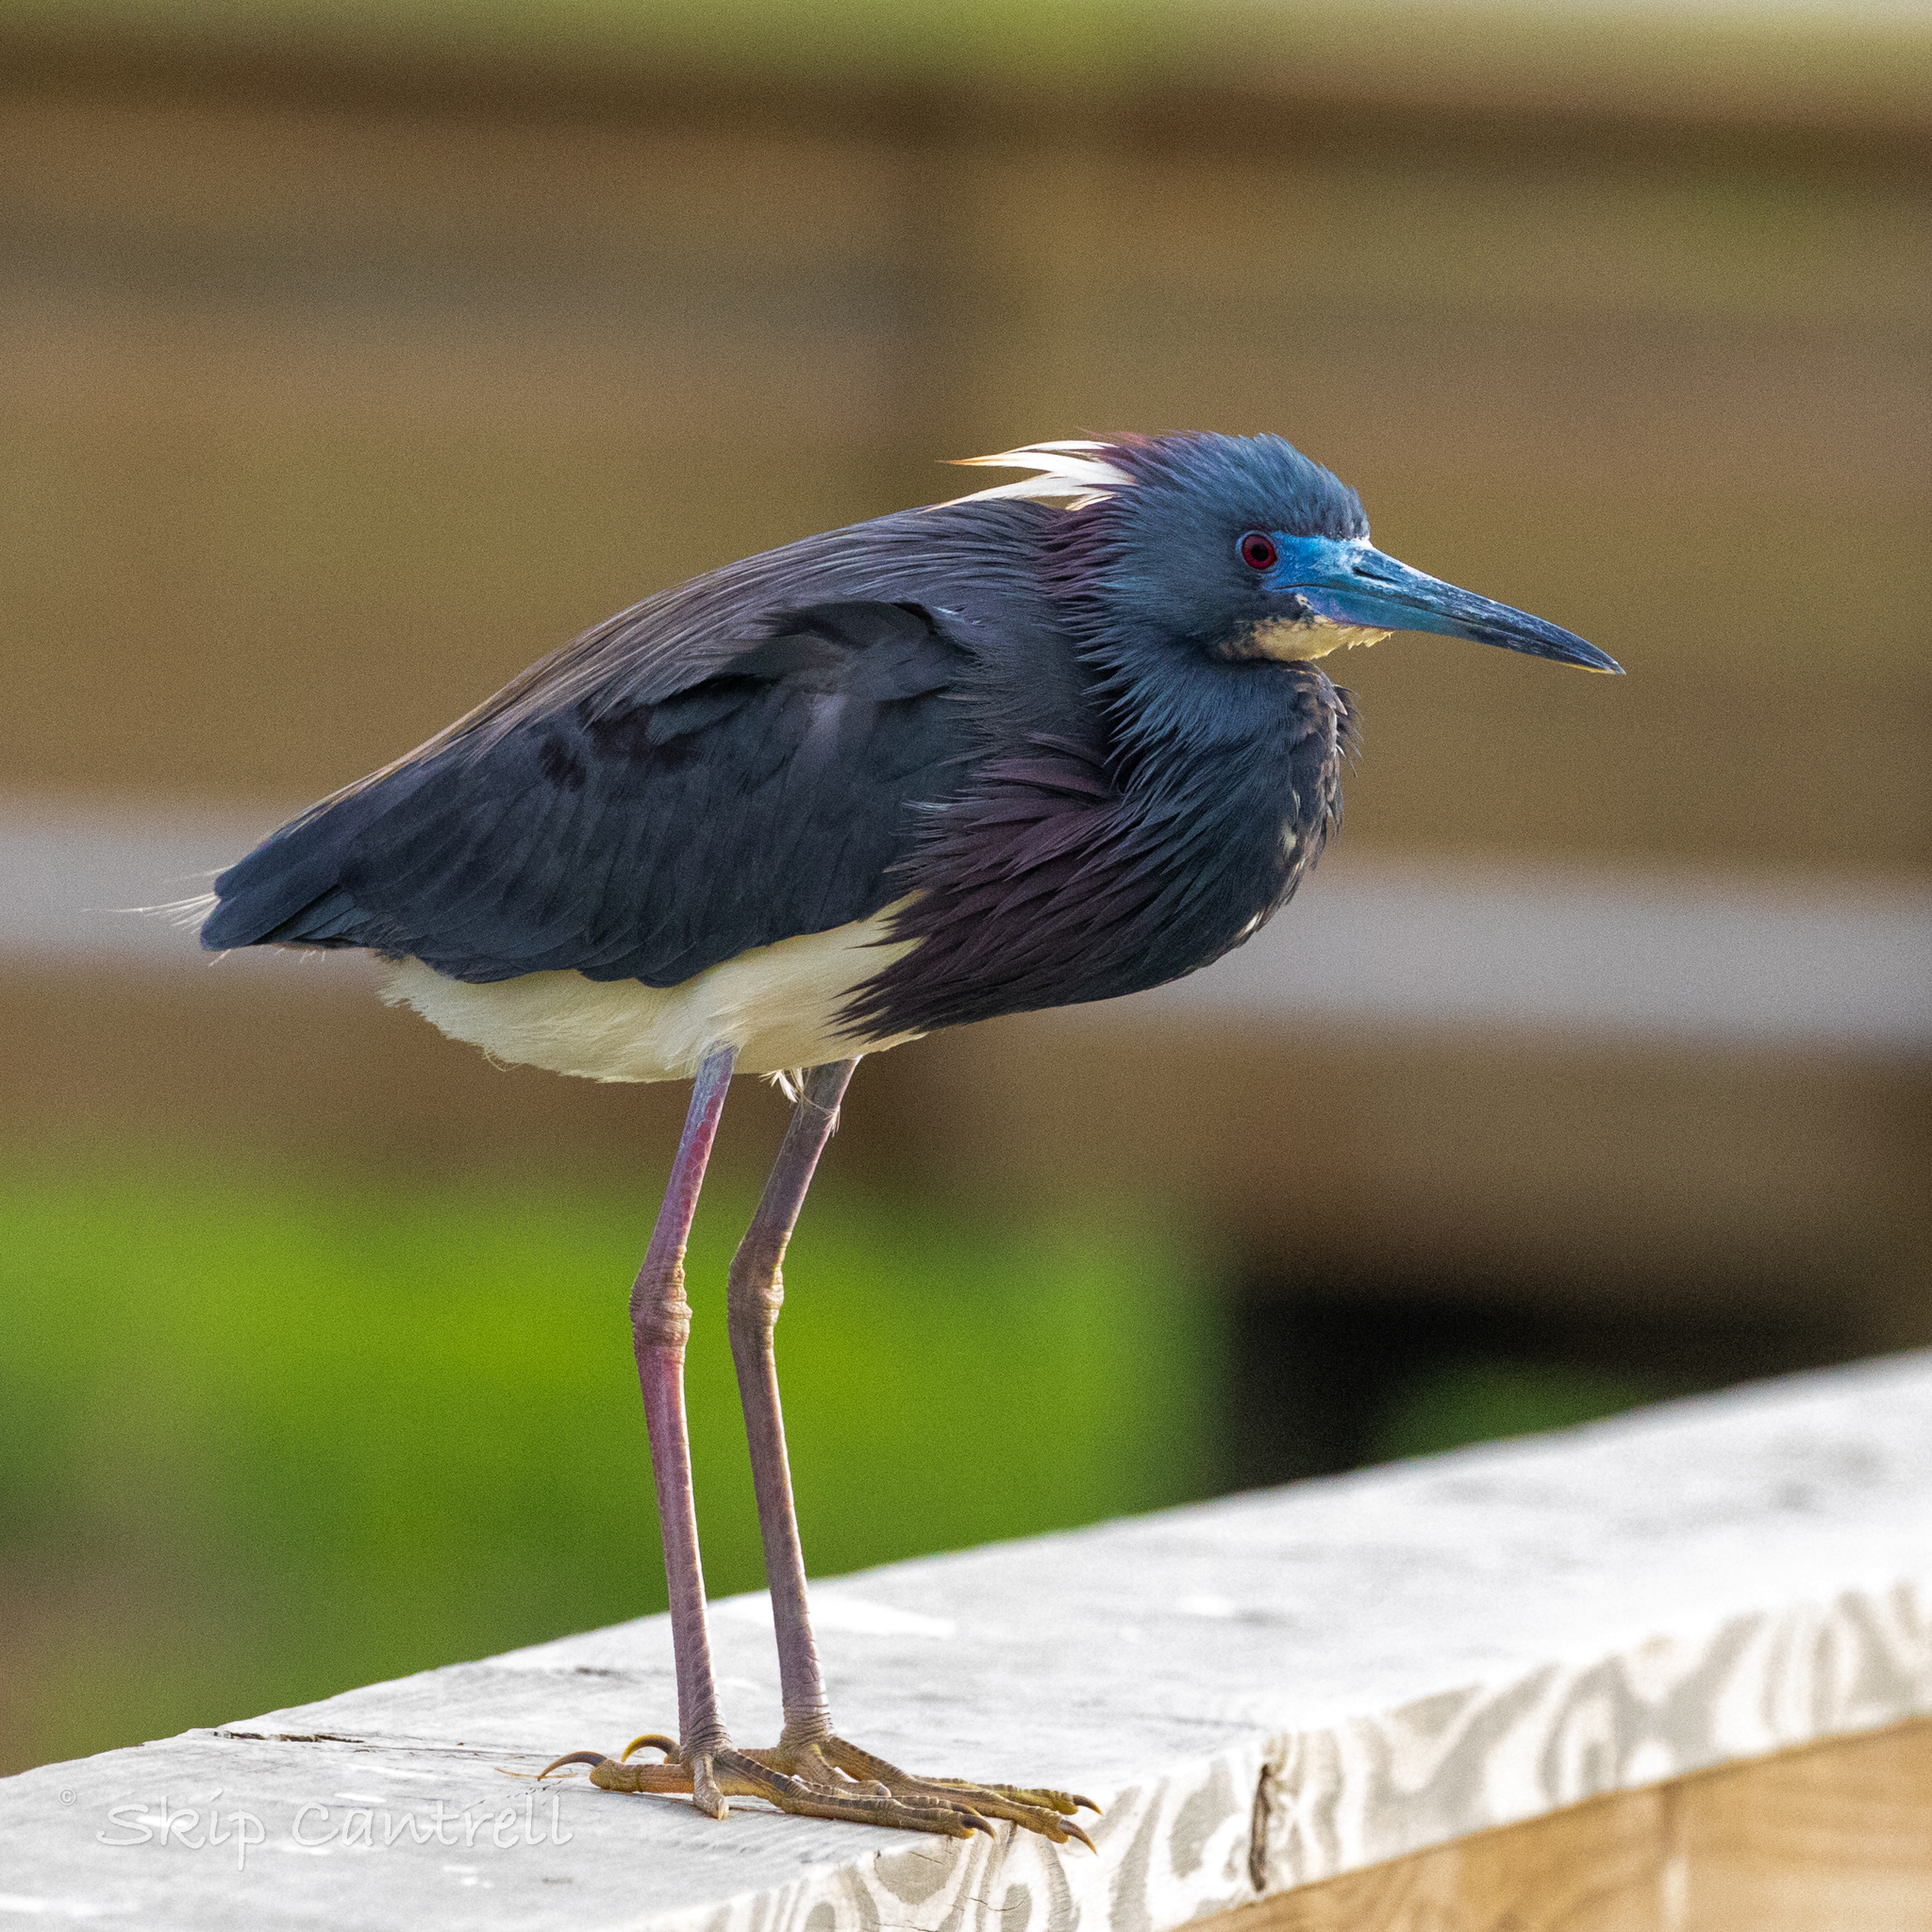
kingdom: Animalia
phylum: Chordata
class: Aves
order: Pelecaniformes
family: Ardeidae
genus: Egretta
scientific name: Egretta tricolor
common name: Tricolored heron
